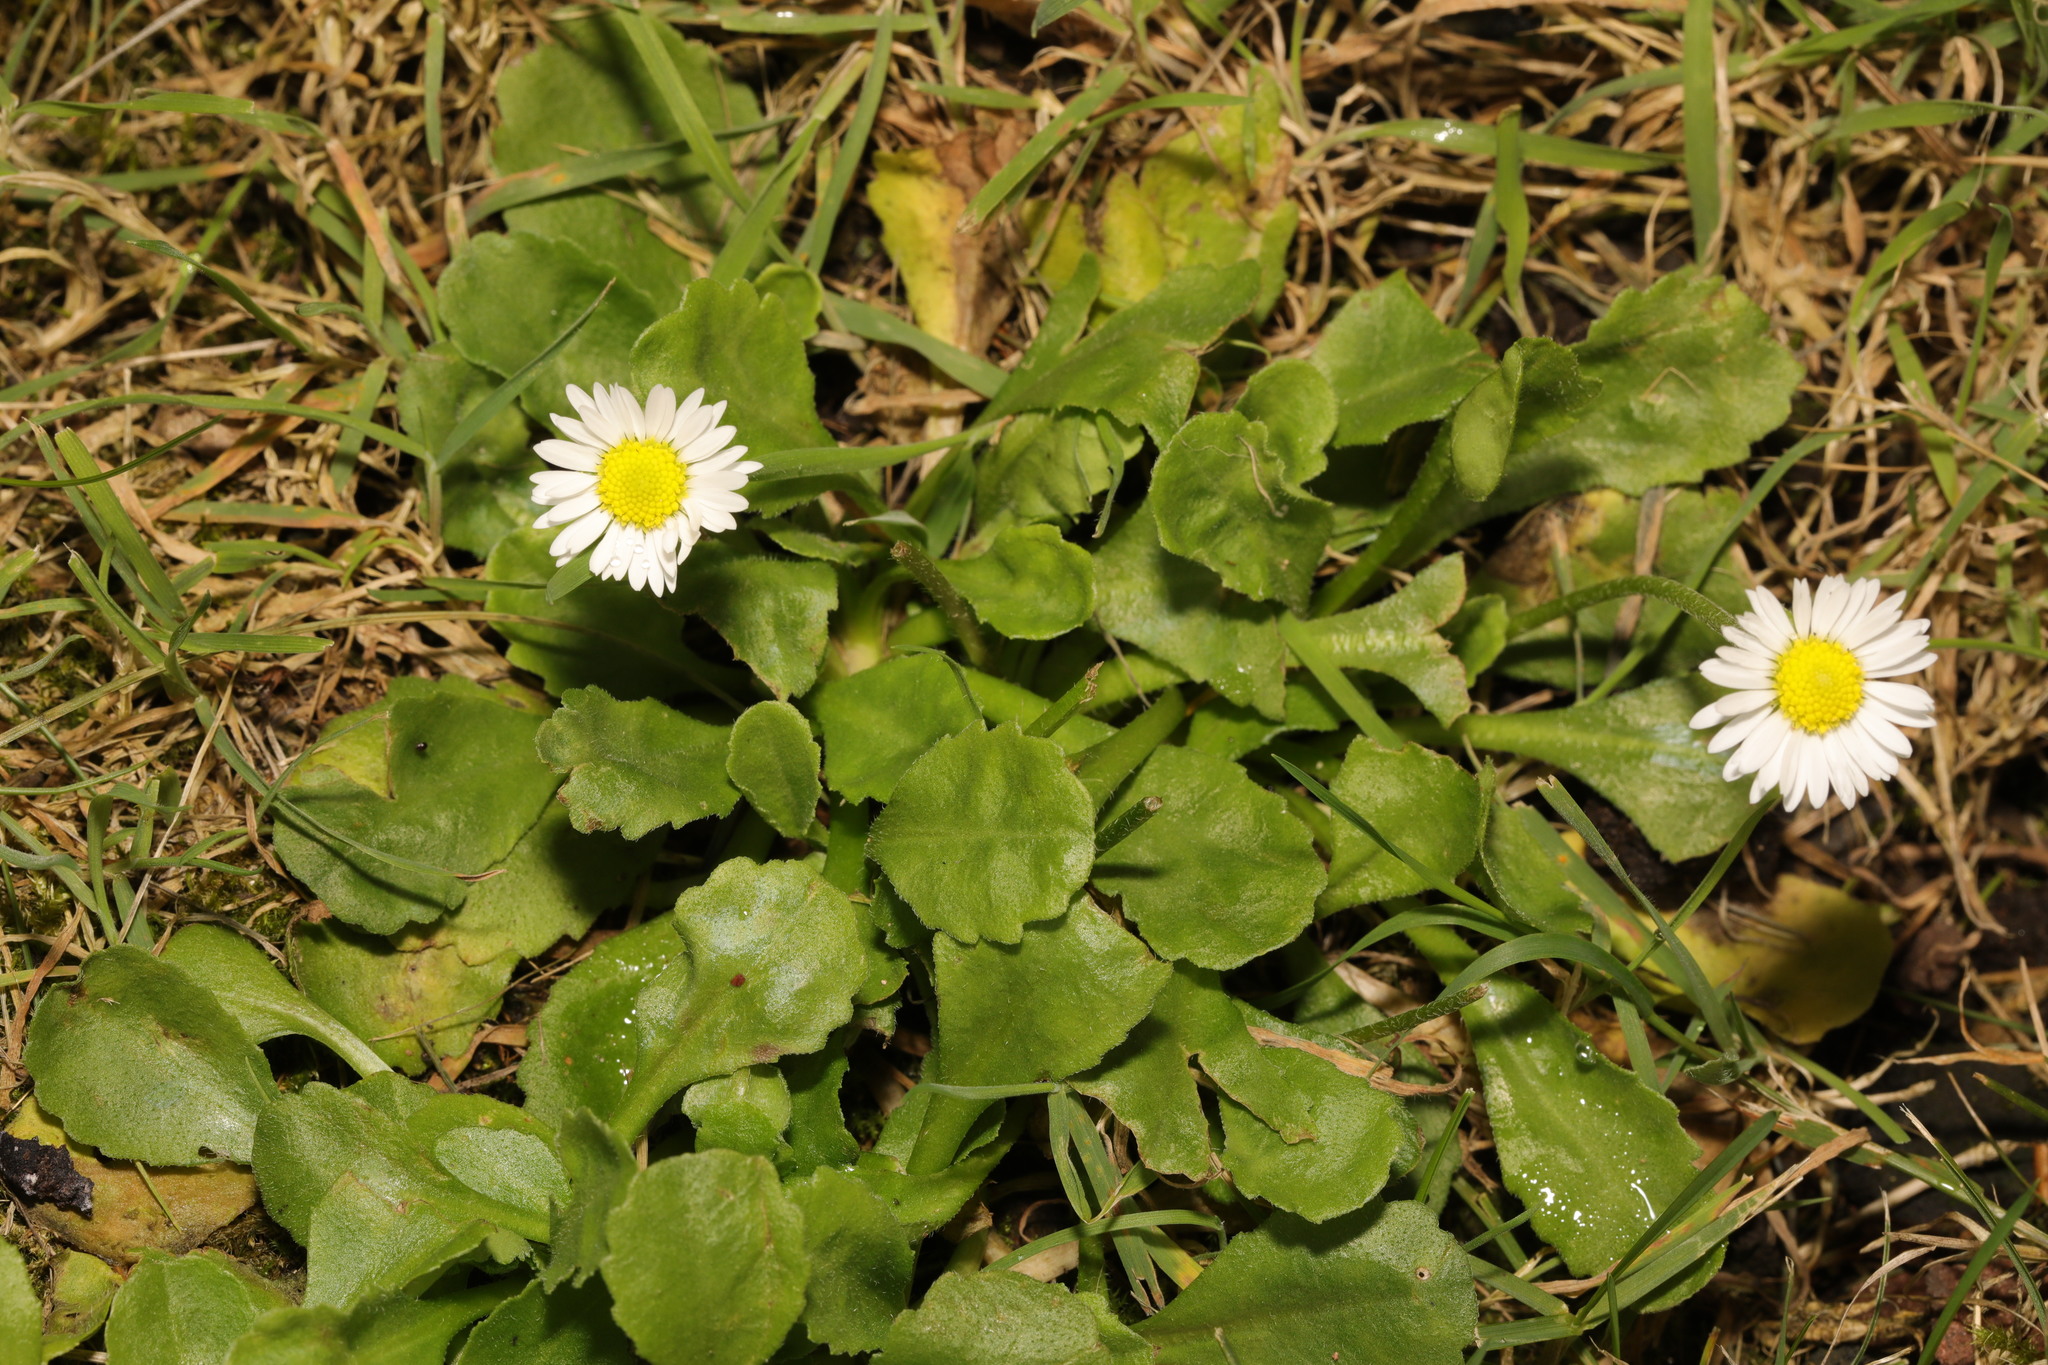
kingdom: Plantae
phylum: Tracheophyta
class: Magnoliopsida
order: Asterales
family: Asteraceae
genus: Bellis
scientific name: Bellis perennis
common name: Lawndaisy
